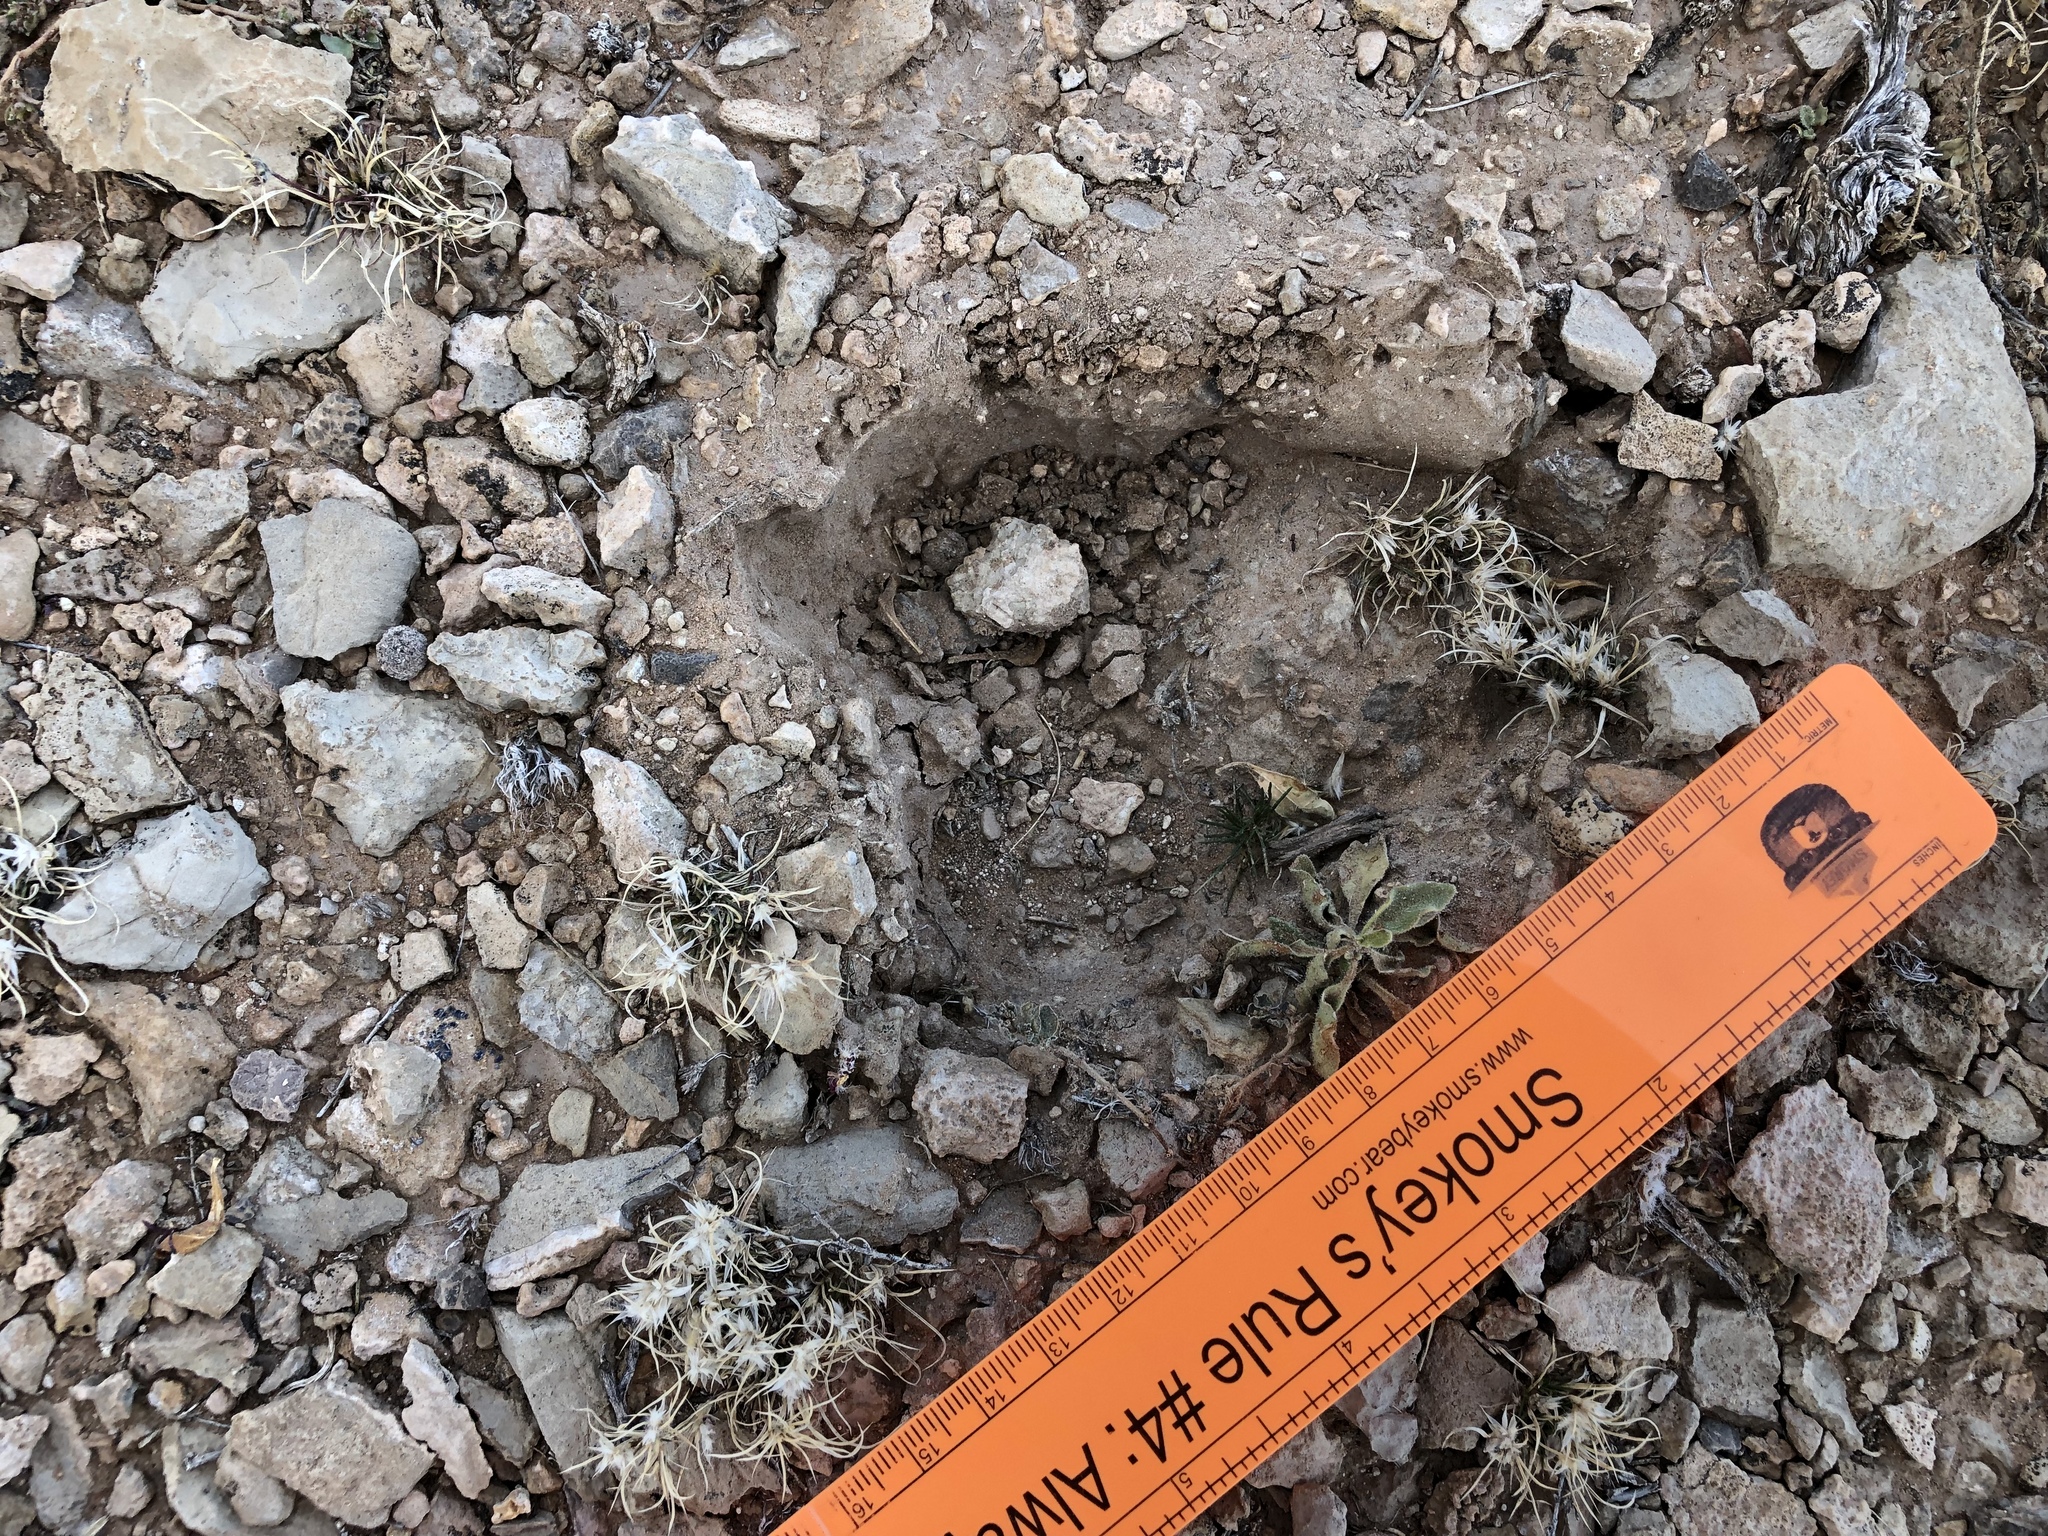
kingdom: Animalia
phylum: Chordata
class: Mammalia
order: Artiodactyla
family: Bovidae
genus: Oryx
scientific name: Oryx gazella
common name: Gemsbok
